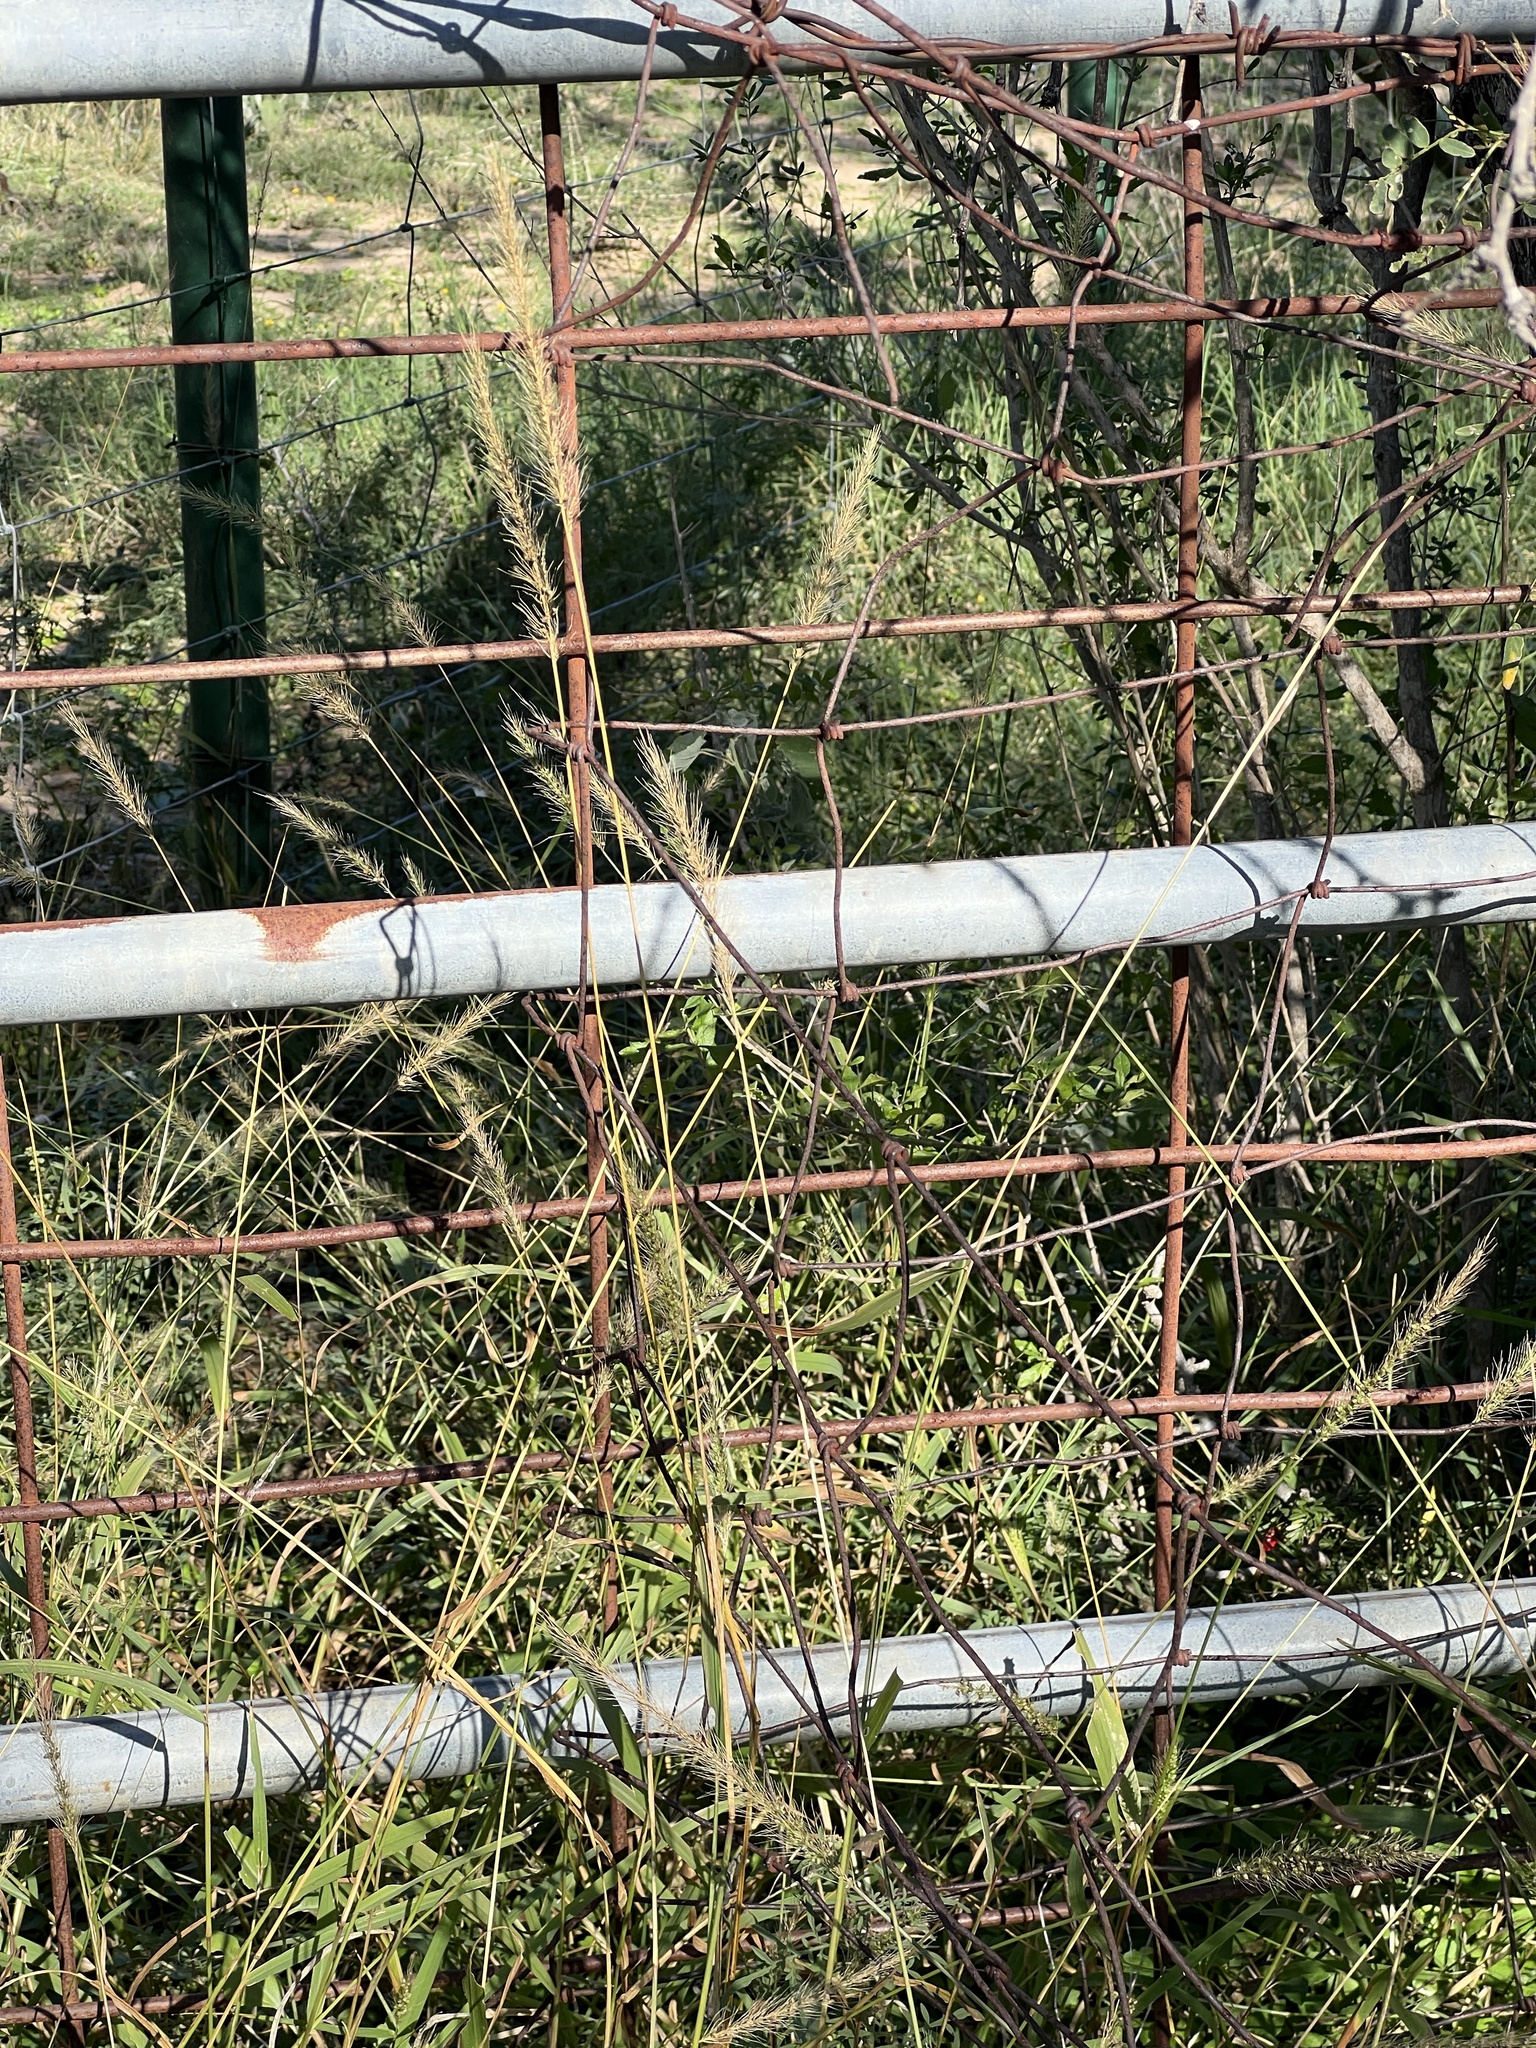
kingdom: Plantae
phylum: Tracheophyta
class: Liliopsida
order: Poales
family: Poaceae
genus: Setaria
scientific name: Setaria scheelei
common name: Southwestern bristle grass
